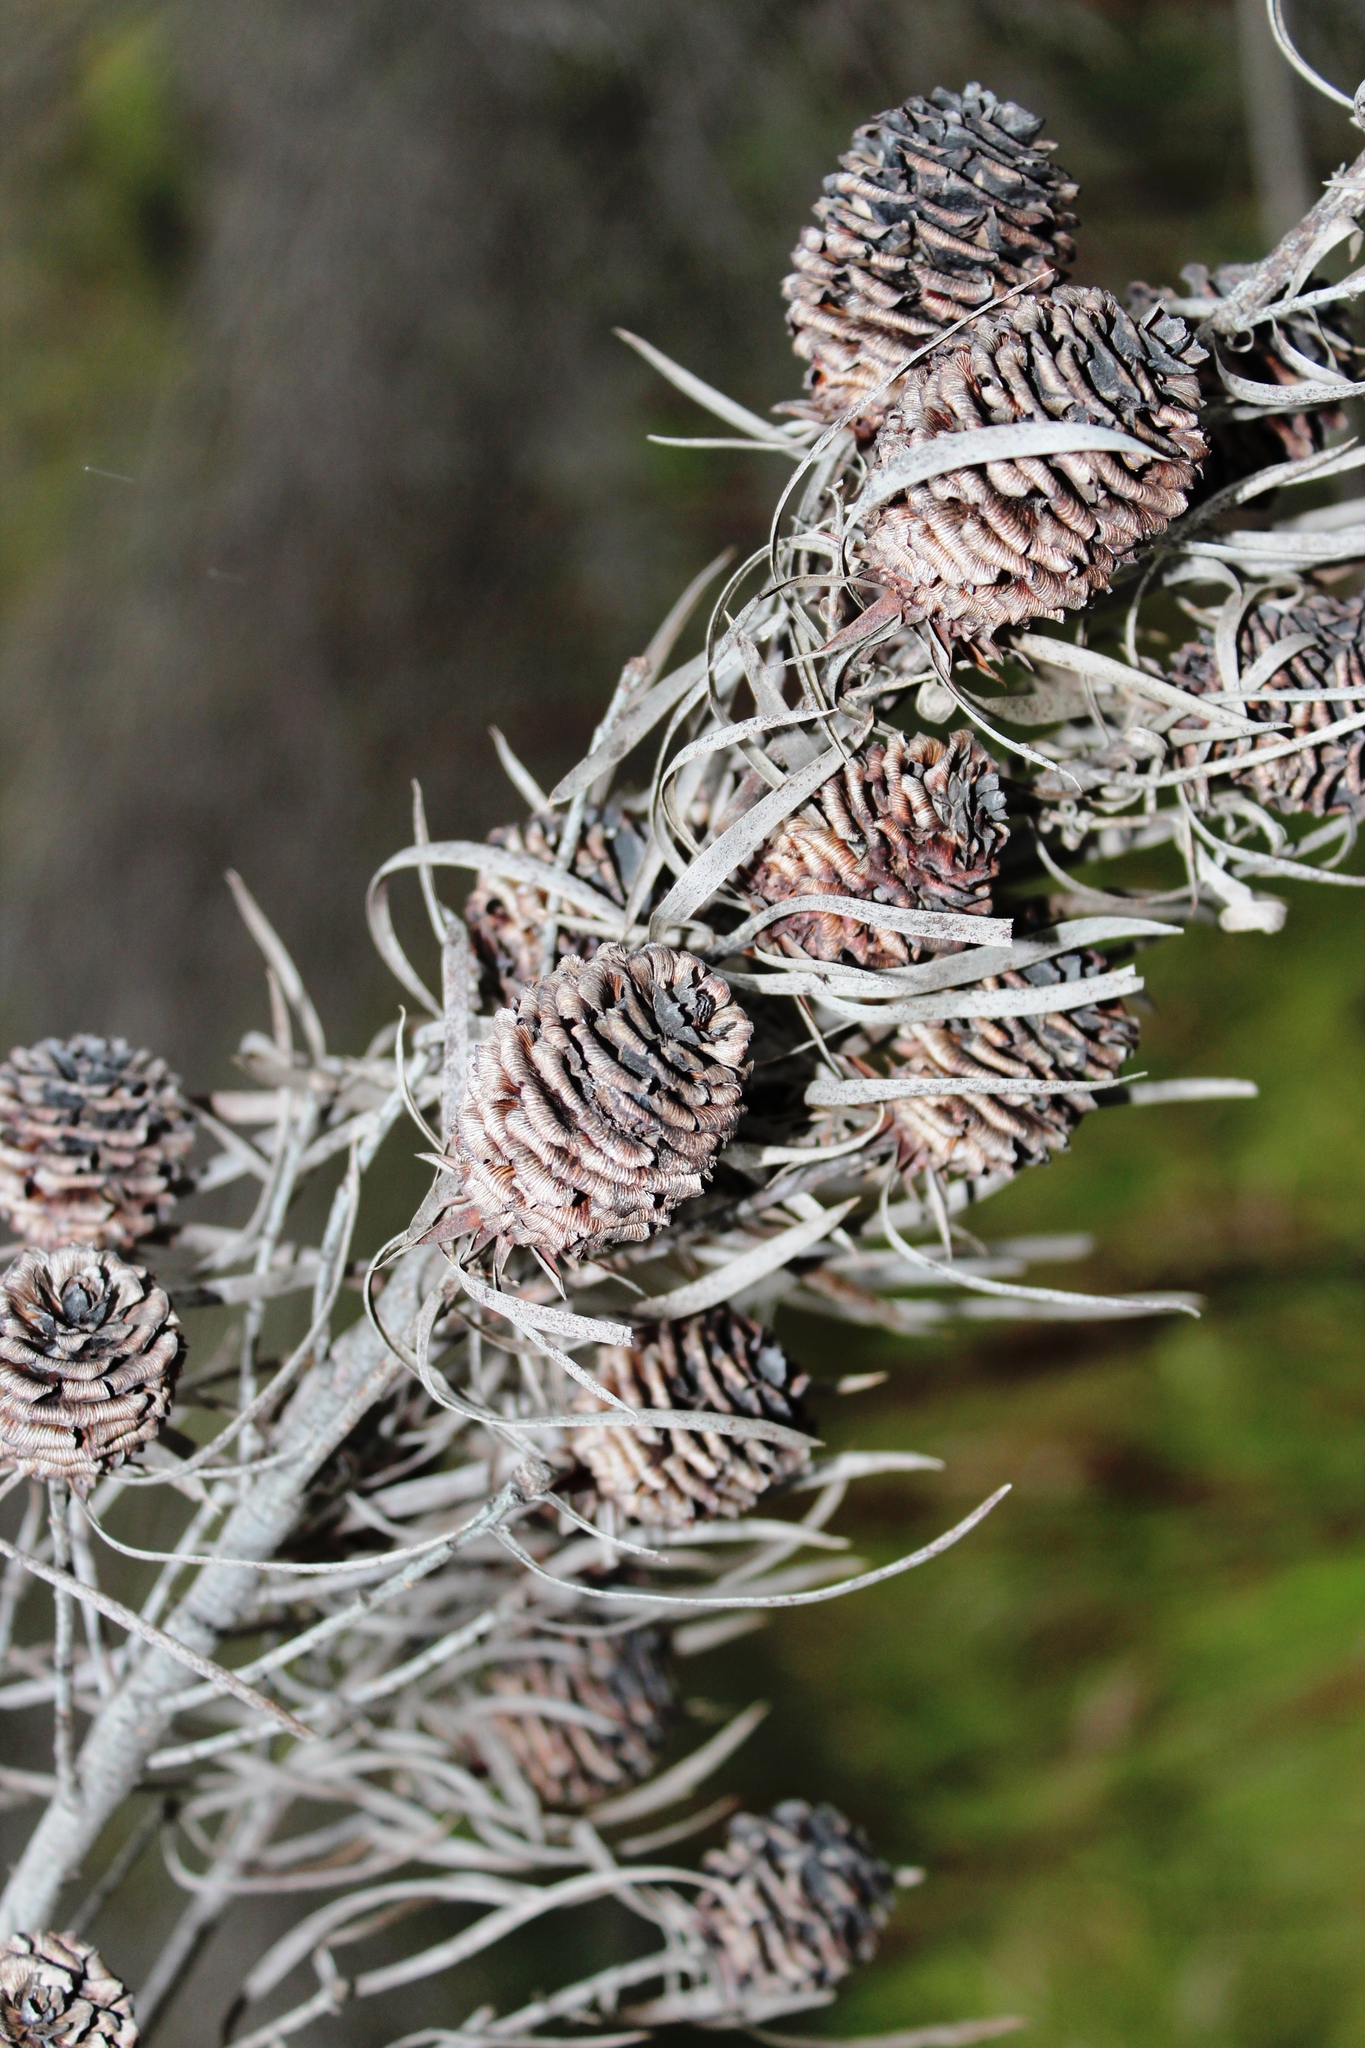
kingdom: Plantae
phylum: Tracheophyta
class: Magnoliopsida
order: Proteales
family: Proteaceae
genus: Leucadendron
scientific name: Leucadendron salicifolium
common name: Common stream conebush
